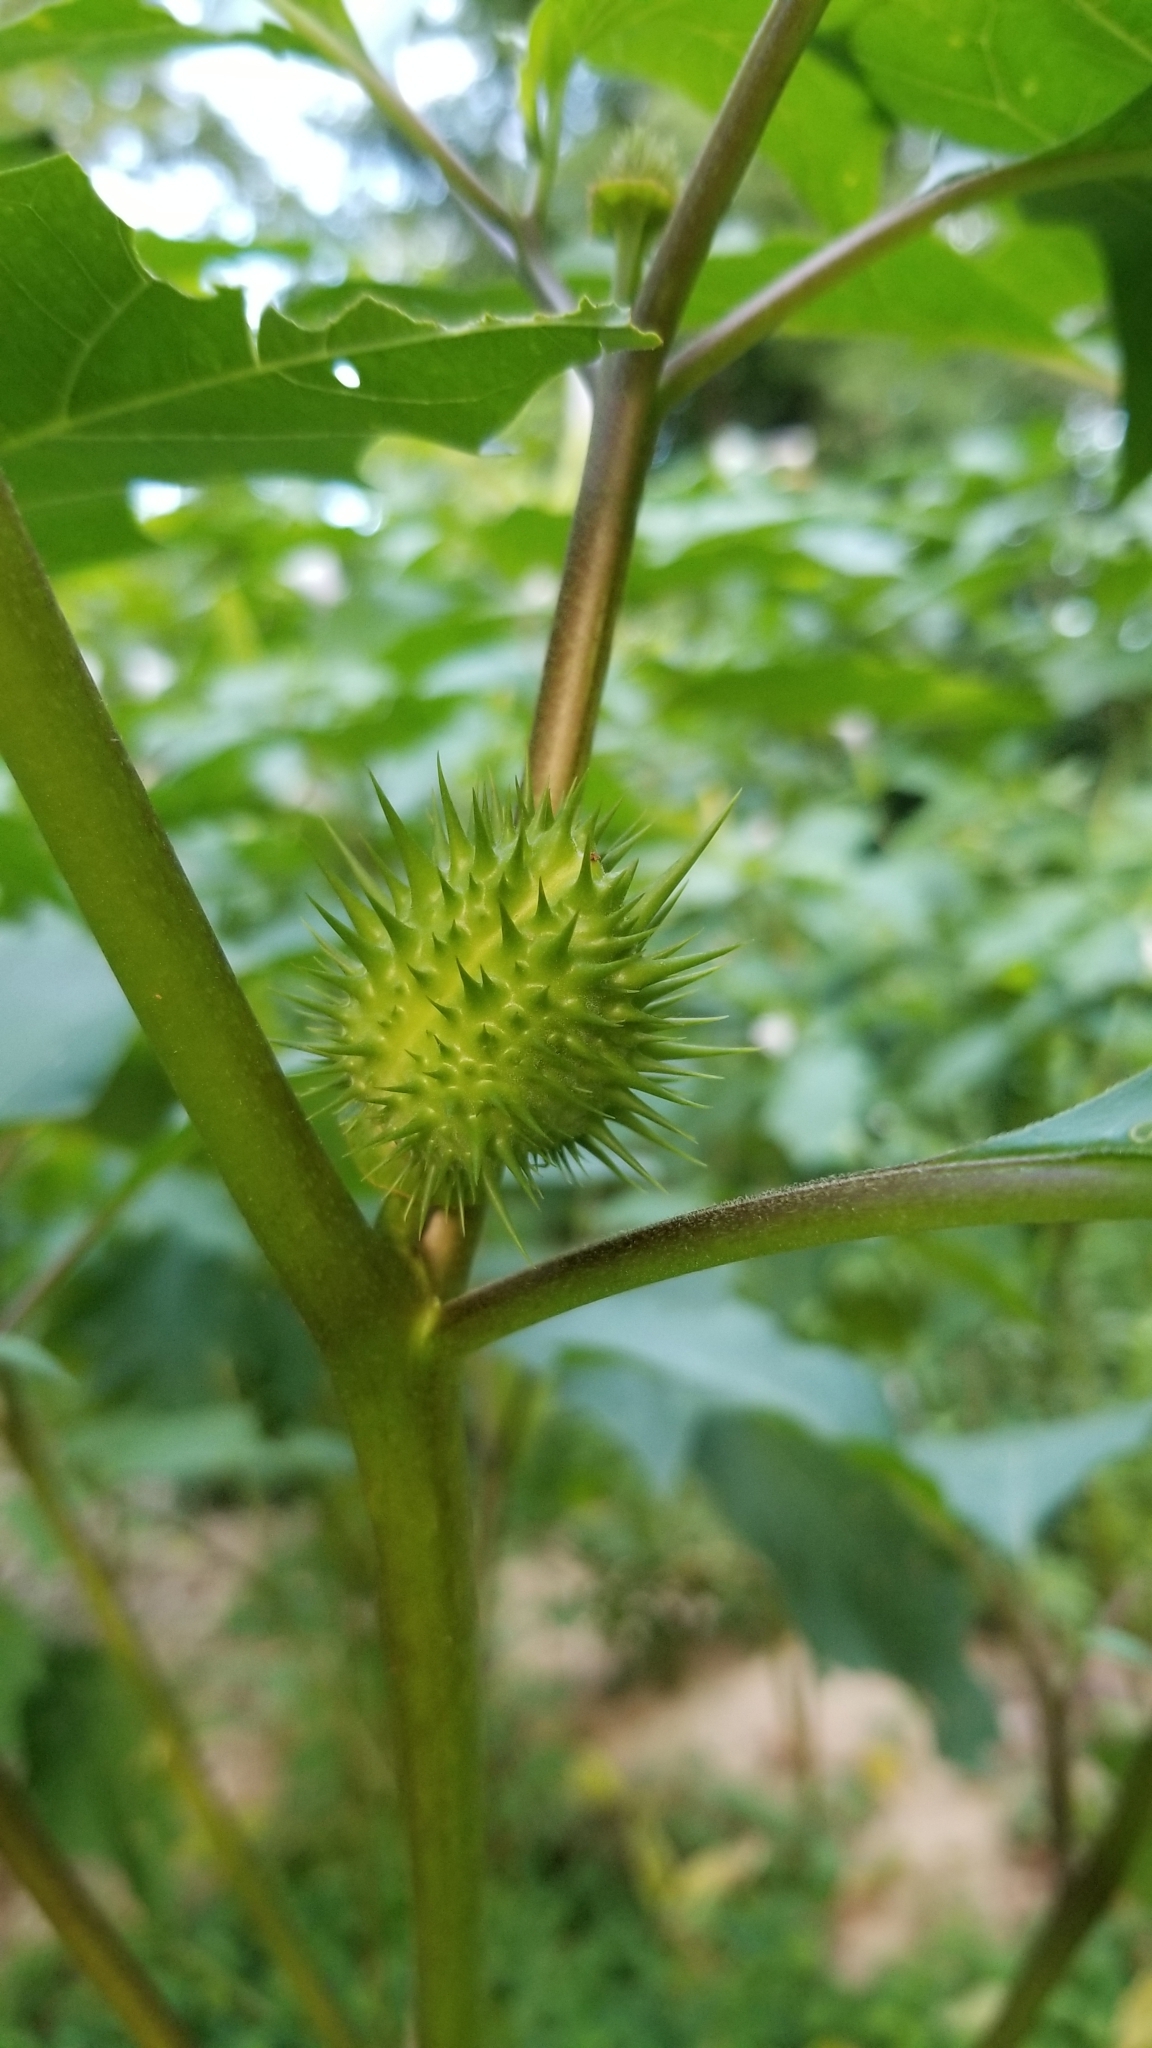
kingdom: Plantae
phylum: Tracheophyta
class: Magnoliopsida
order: Solanales
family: Solanaceae
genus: Datura
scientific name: Datura stramonium
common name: Thorn-apple
